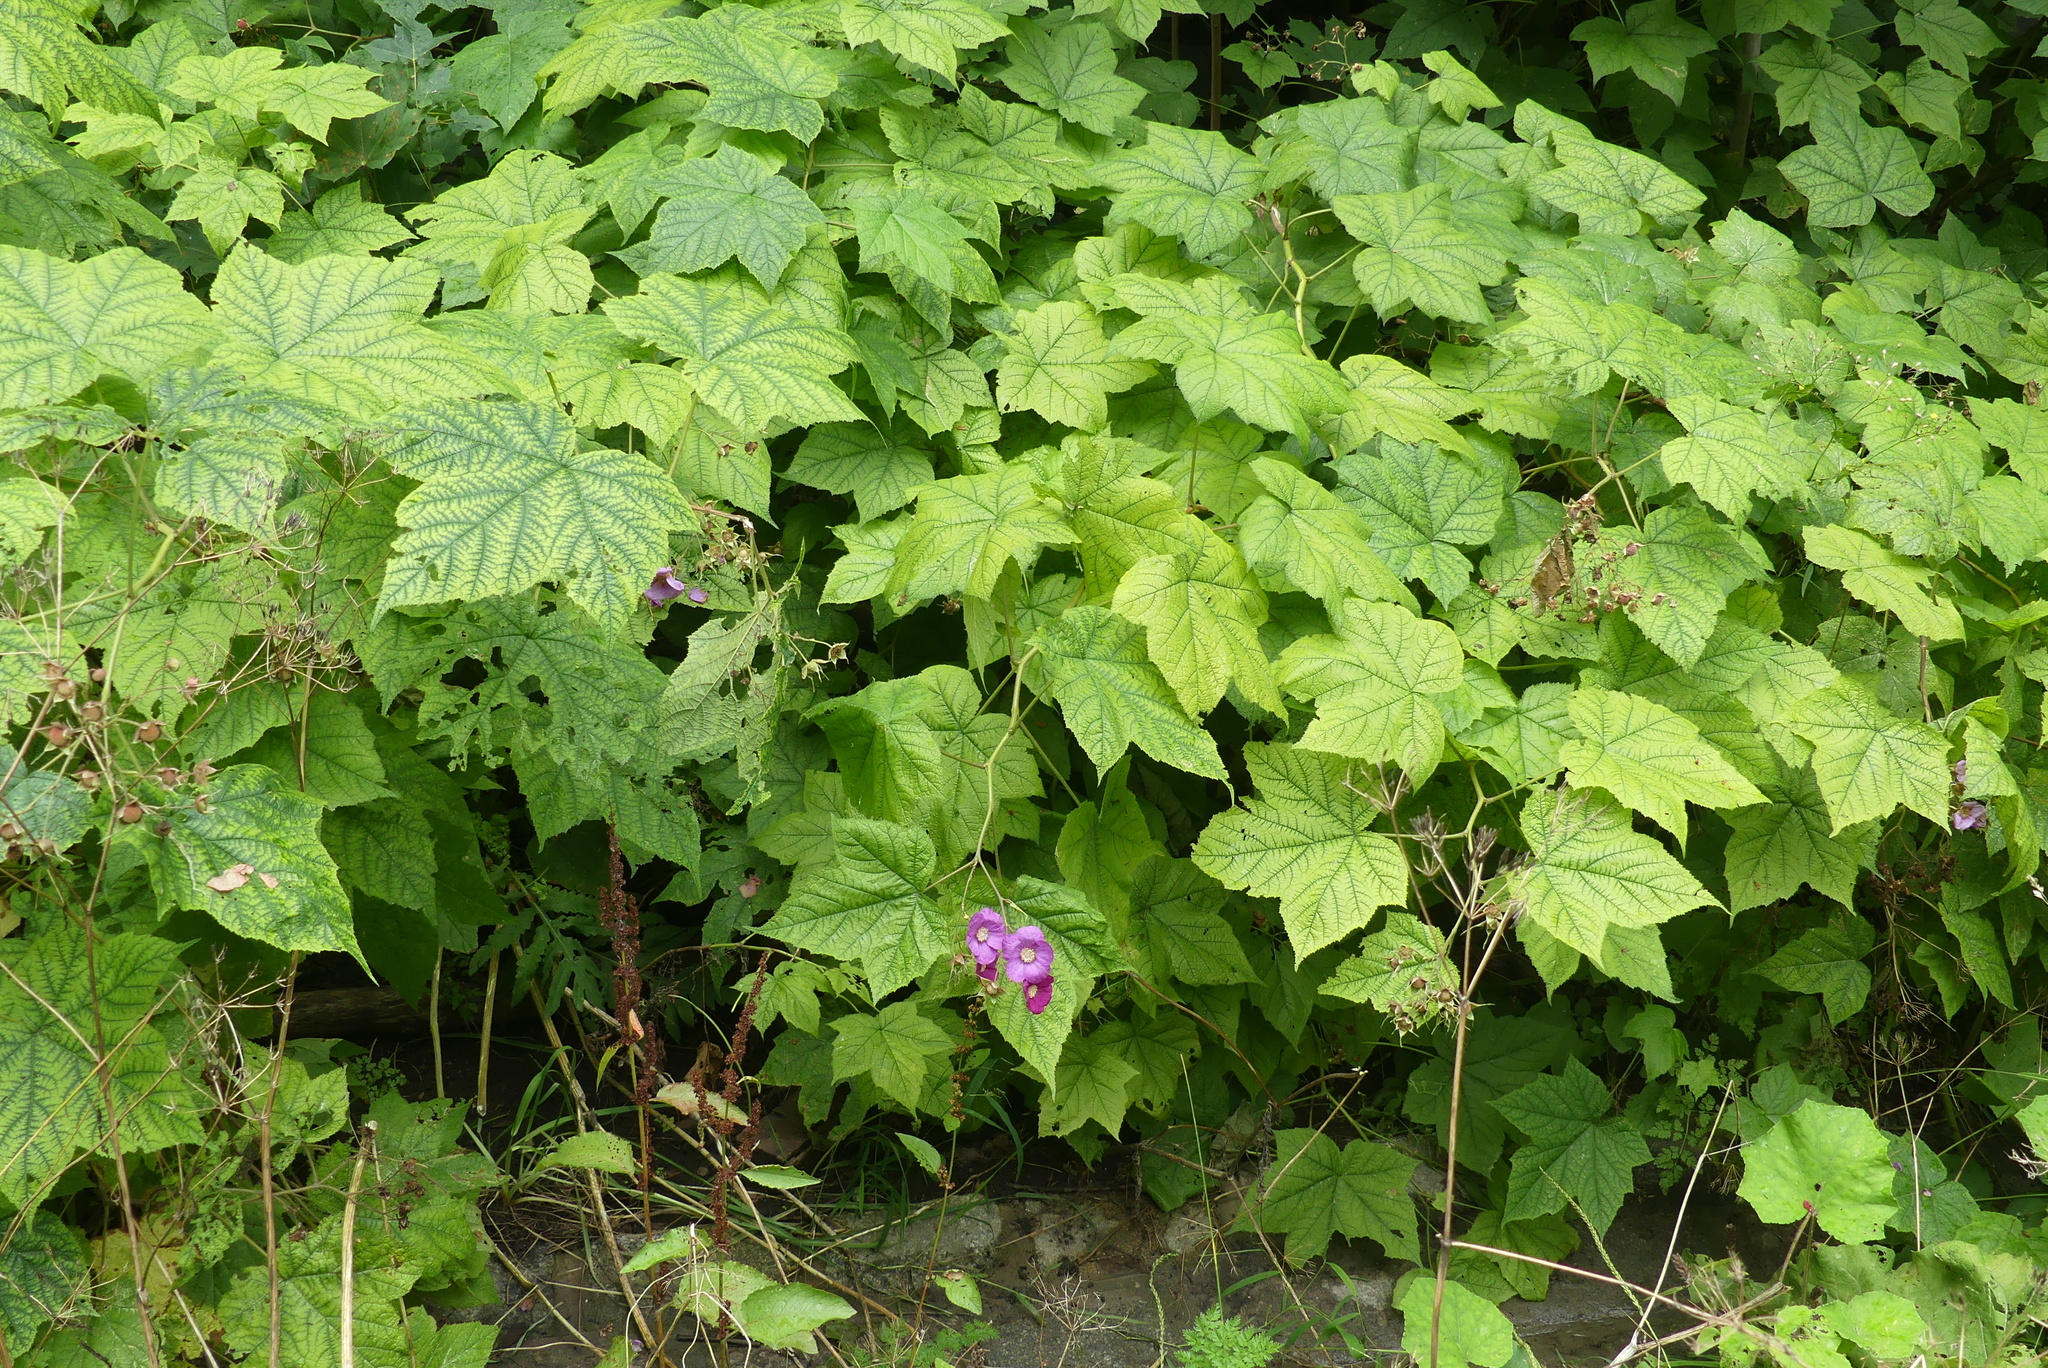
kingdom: Plantae
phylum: Tracheophyta
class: Magnoliopsida
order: Rosales
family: Rosaceae
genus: Rubus
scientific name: Rubus odoratus
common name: Purple-flowered raspberry
